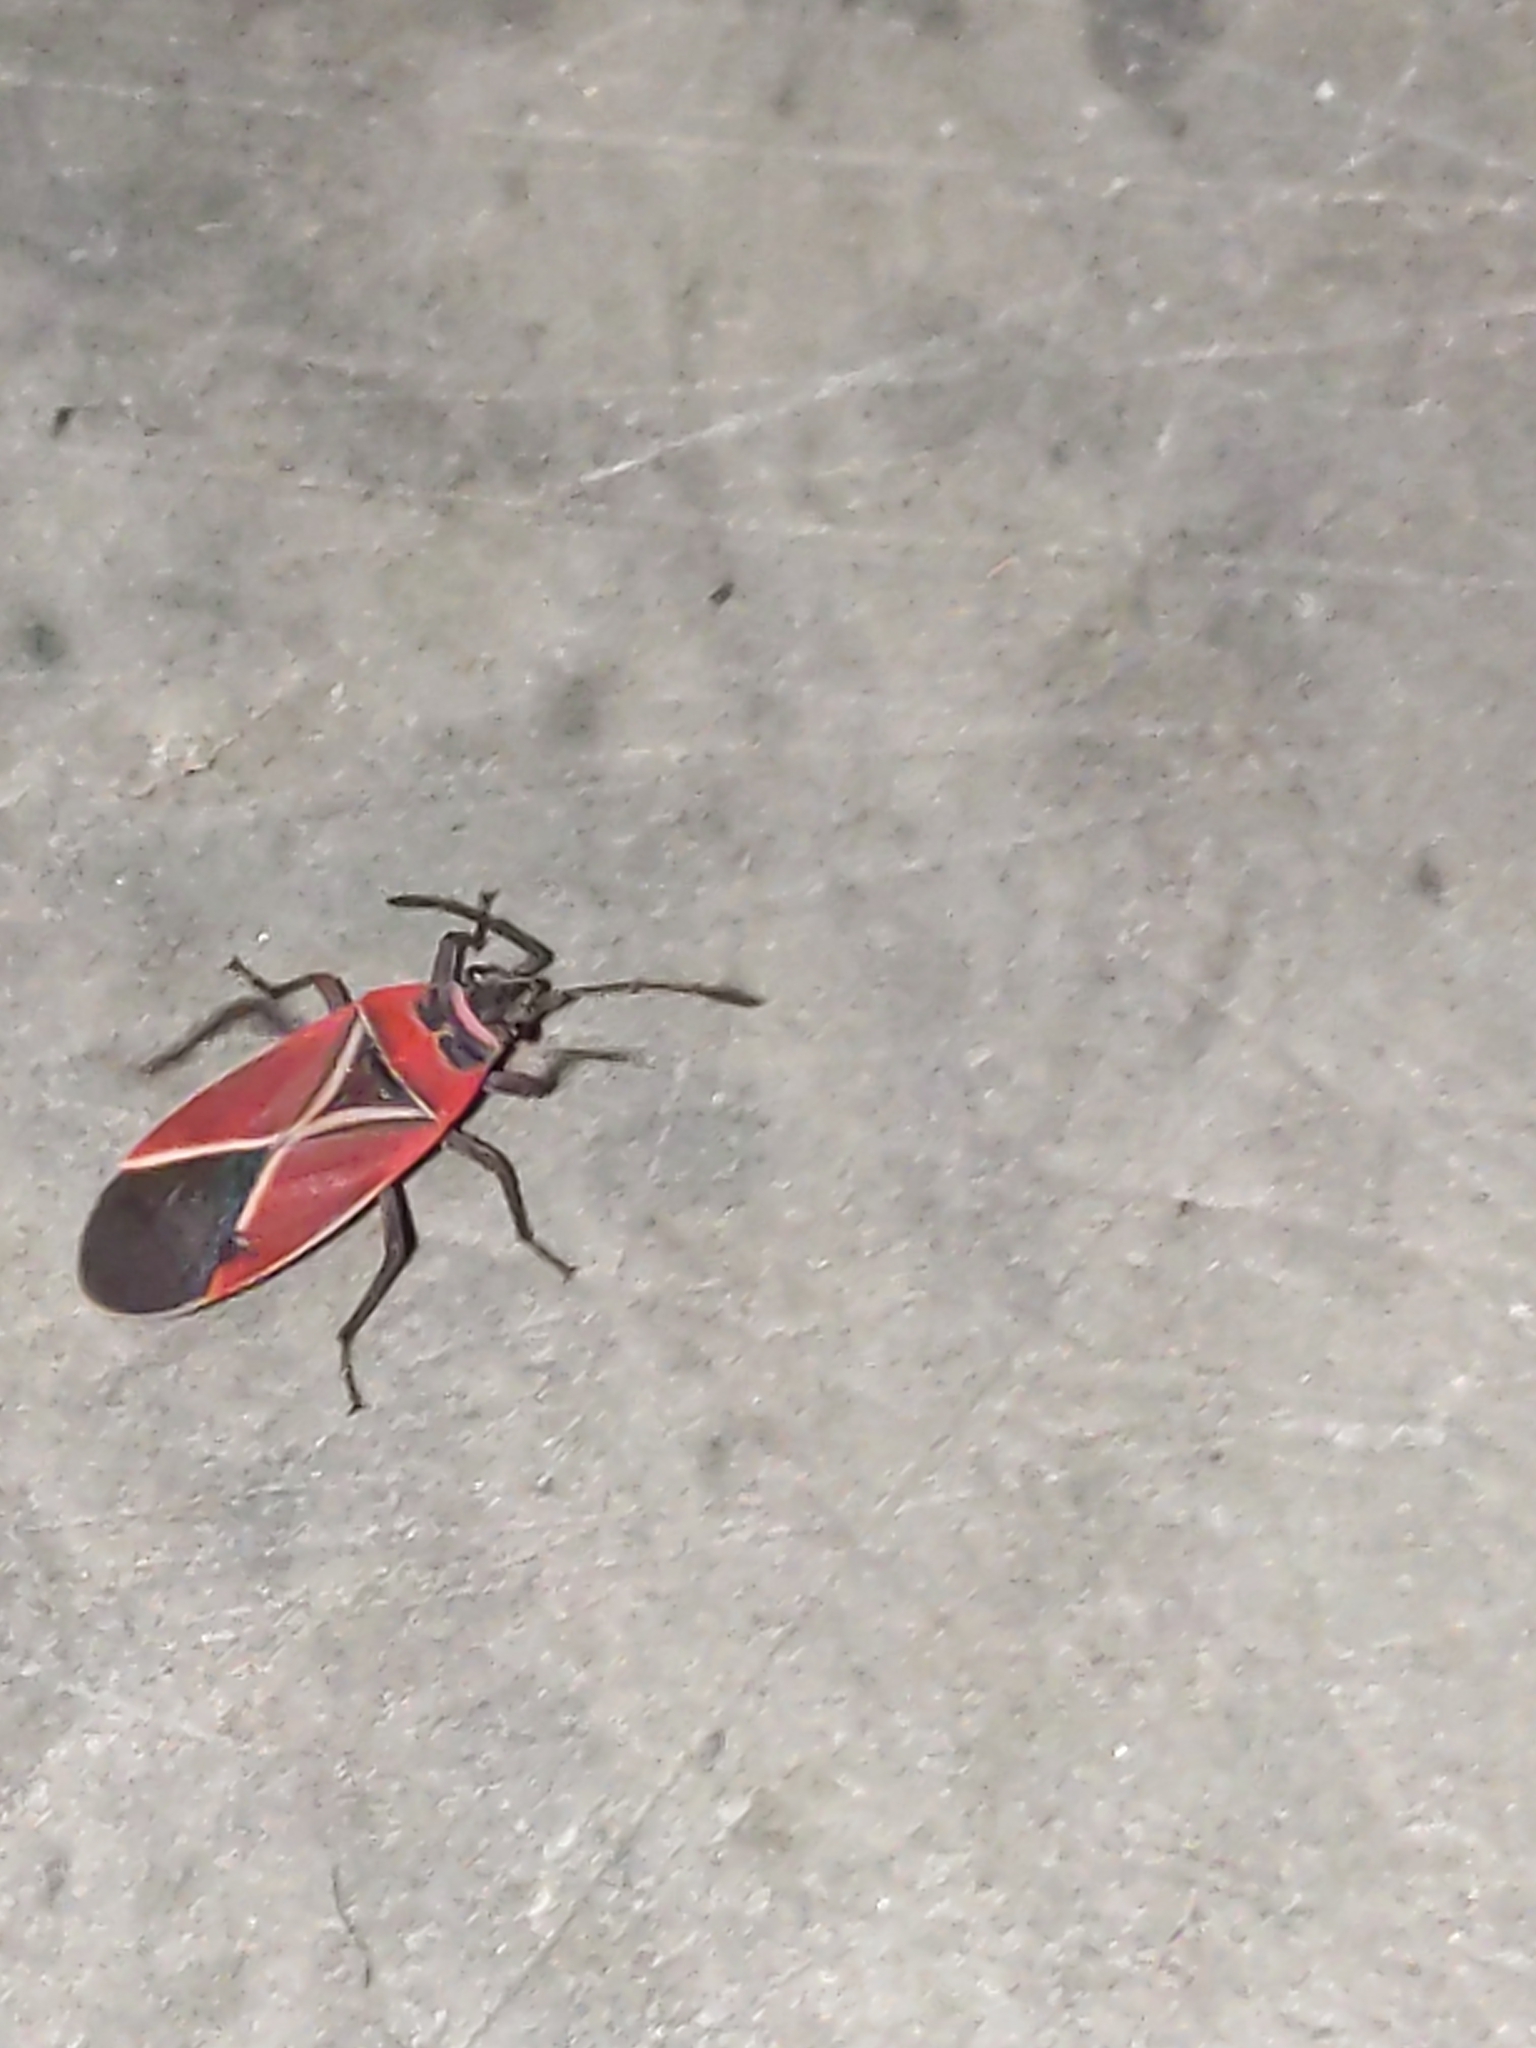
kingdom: Animalia
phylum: Arthropoda
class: Insecta
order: Hemiptera
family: Lygaeidae
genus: Neacoryphus
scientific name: Neacoryphus bicrucis
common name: Lygaeid bug
